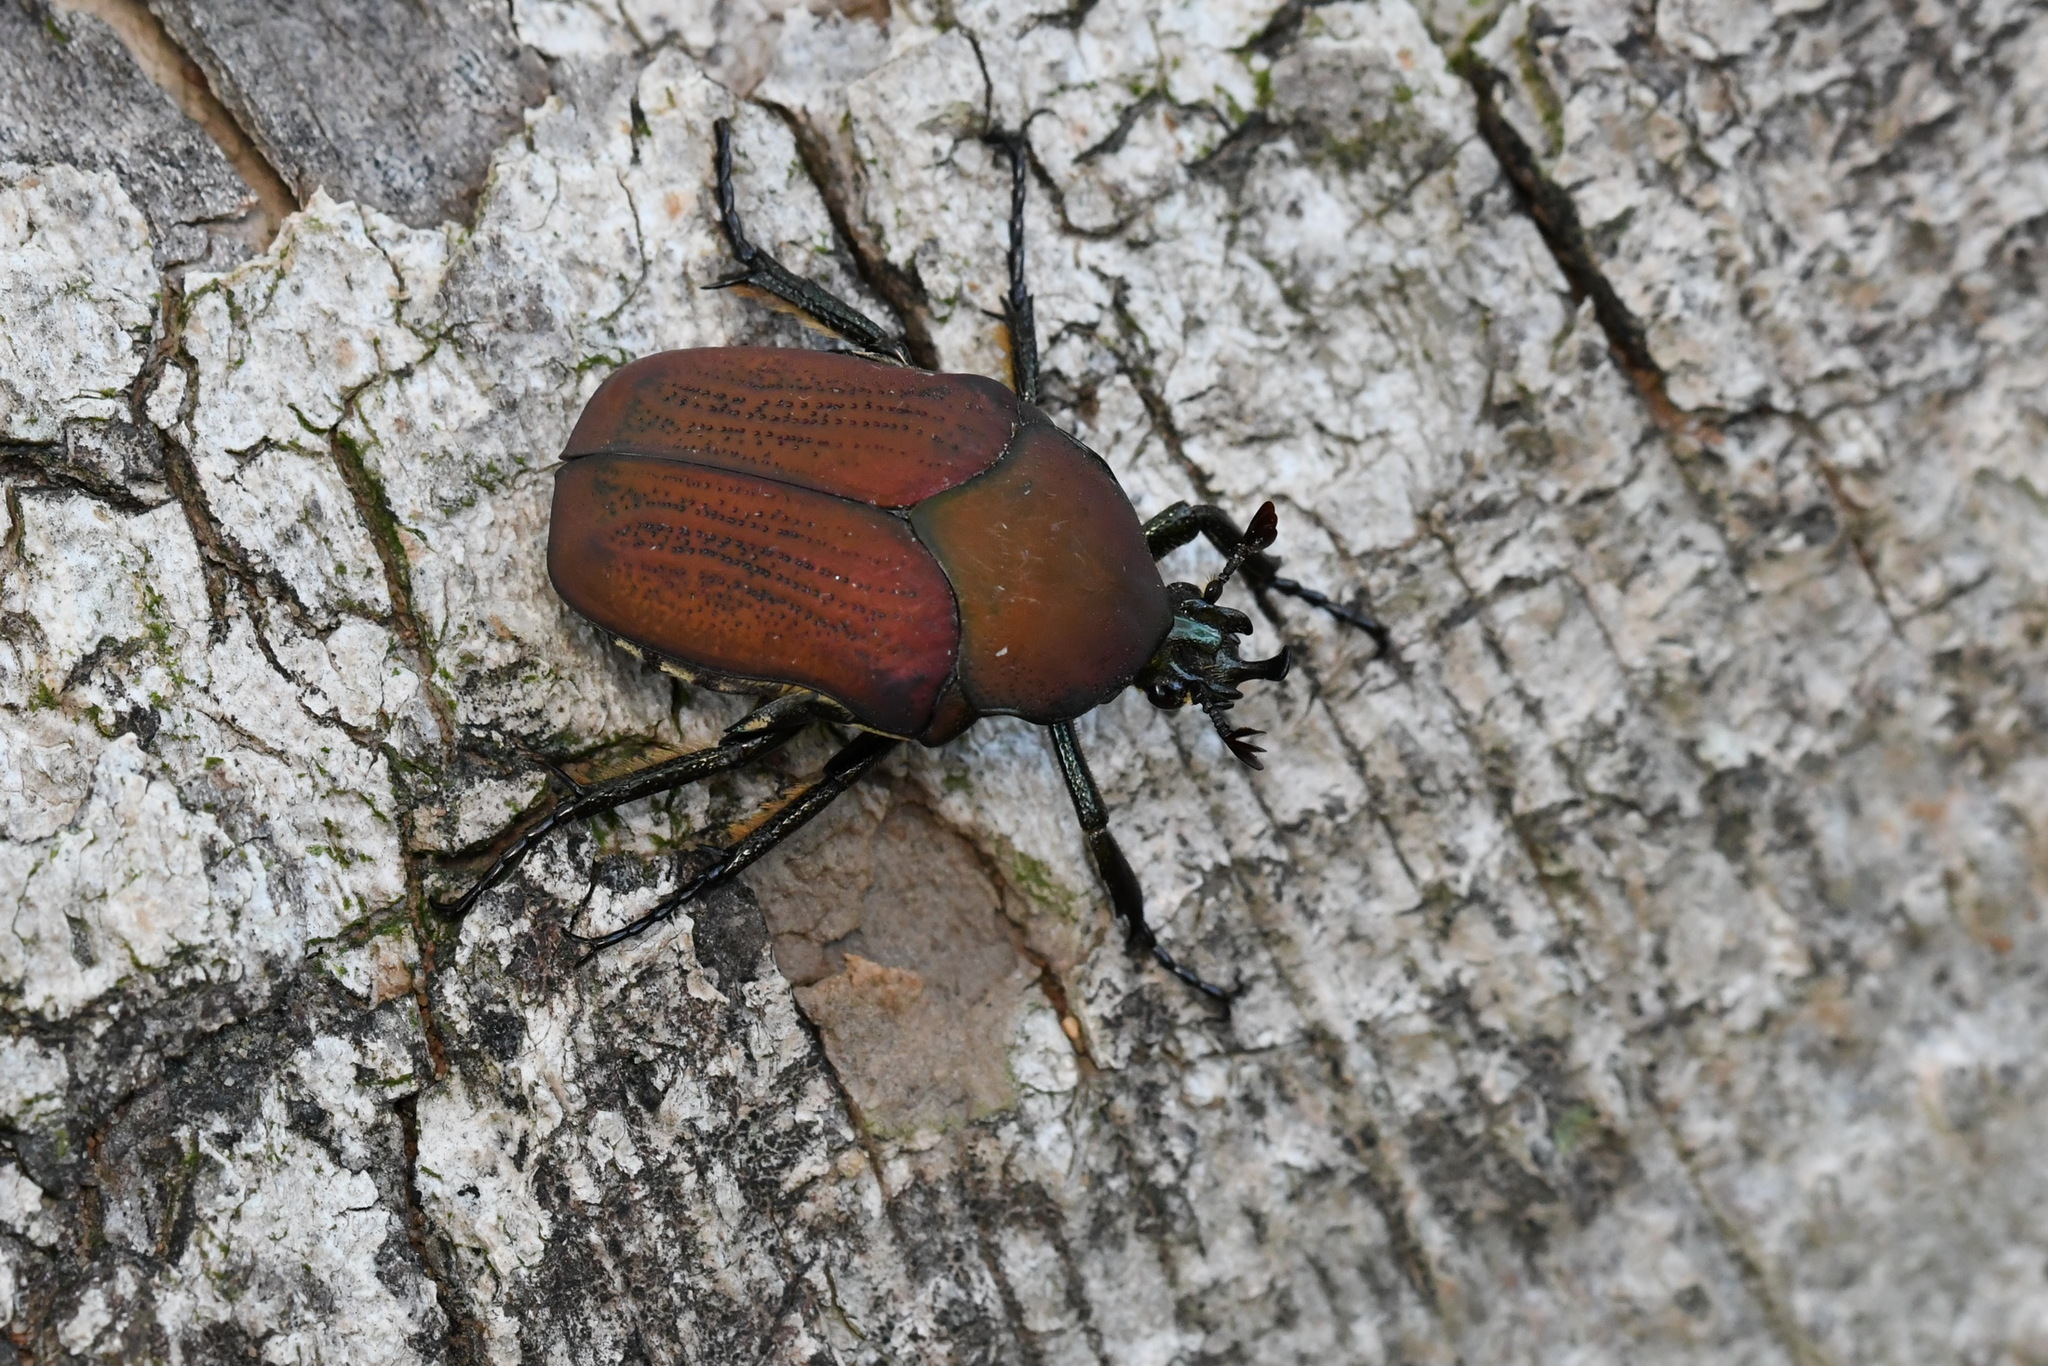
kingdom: Animalia
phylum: Arthropoda
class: Insecta
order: Coleoptera
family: Scarabaeidae
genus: Allorrhina
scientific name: Allorrhina menetriesi
